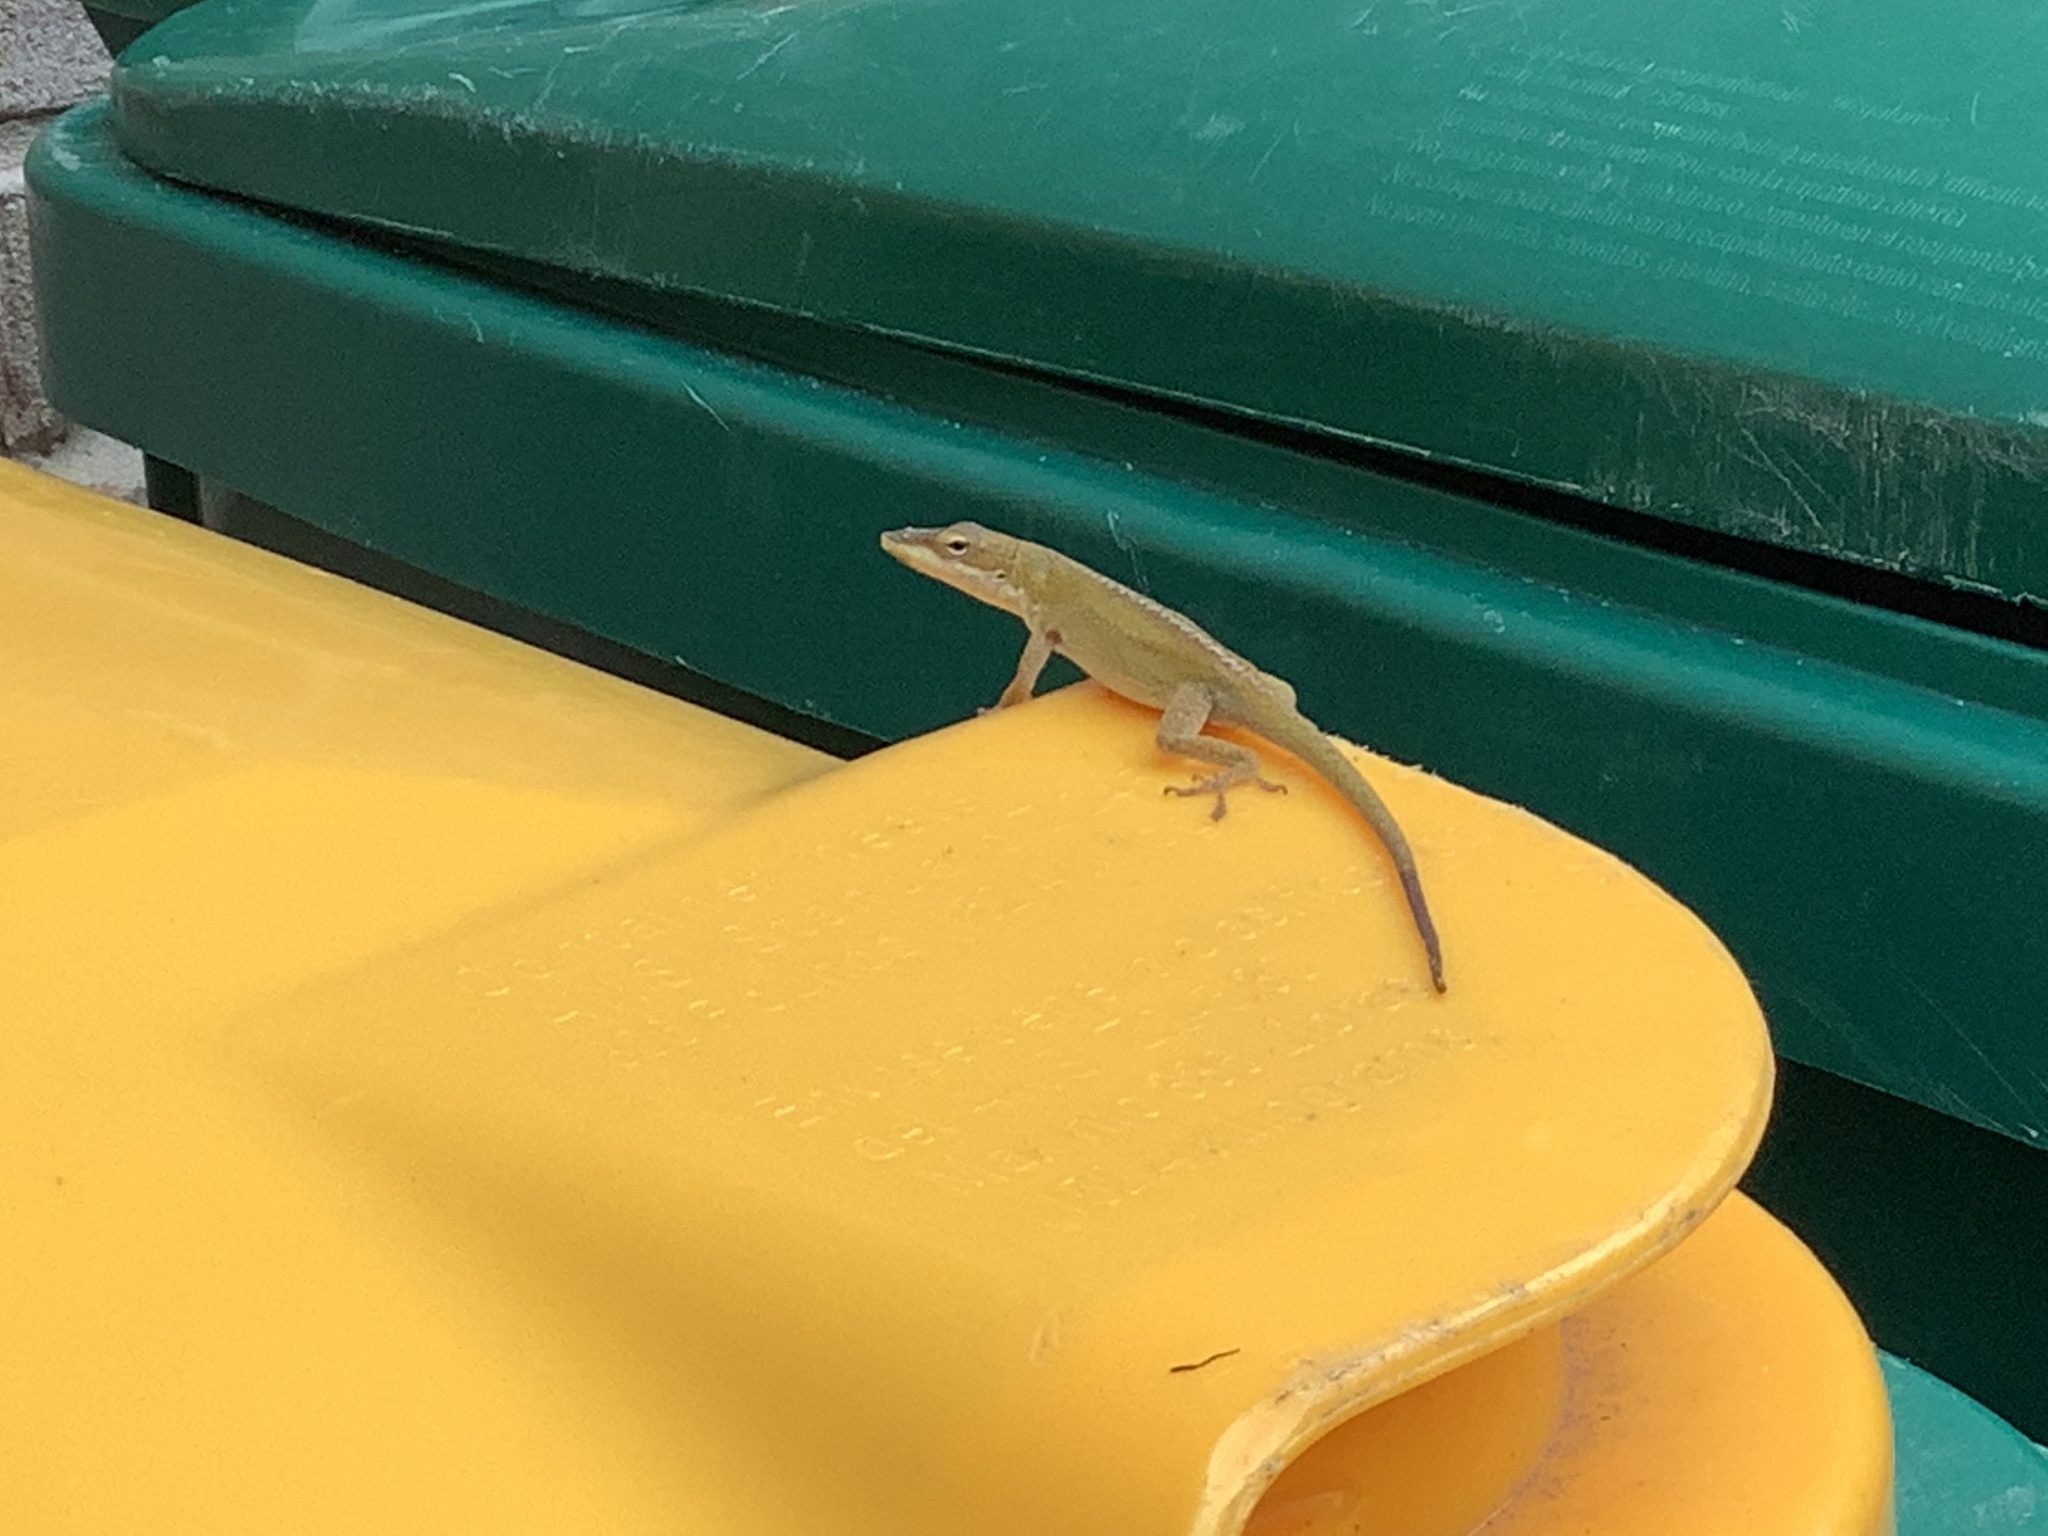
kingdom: Animalia
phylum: Chordata
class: Squamata
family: Dactyloidae
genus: Anolis
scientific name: Anolis carolinensis
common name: Green anole
